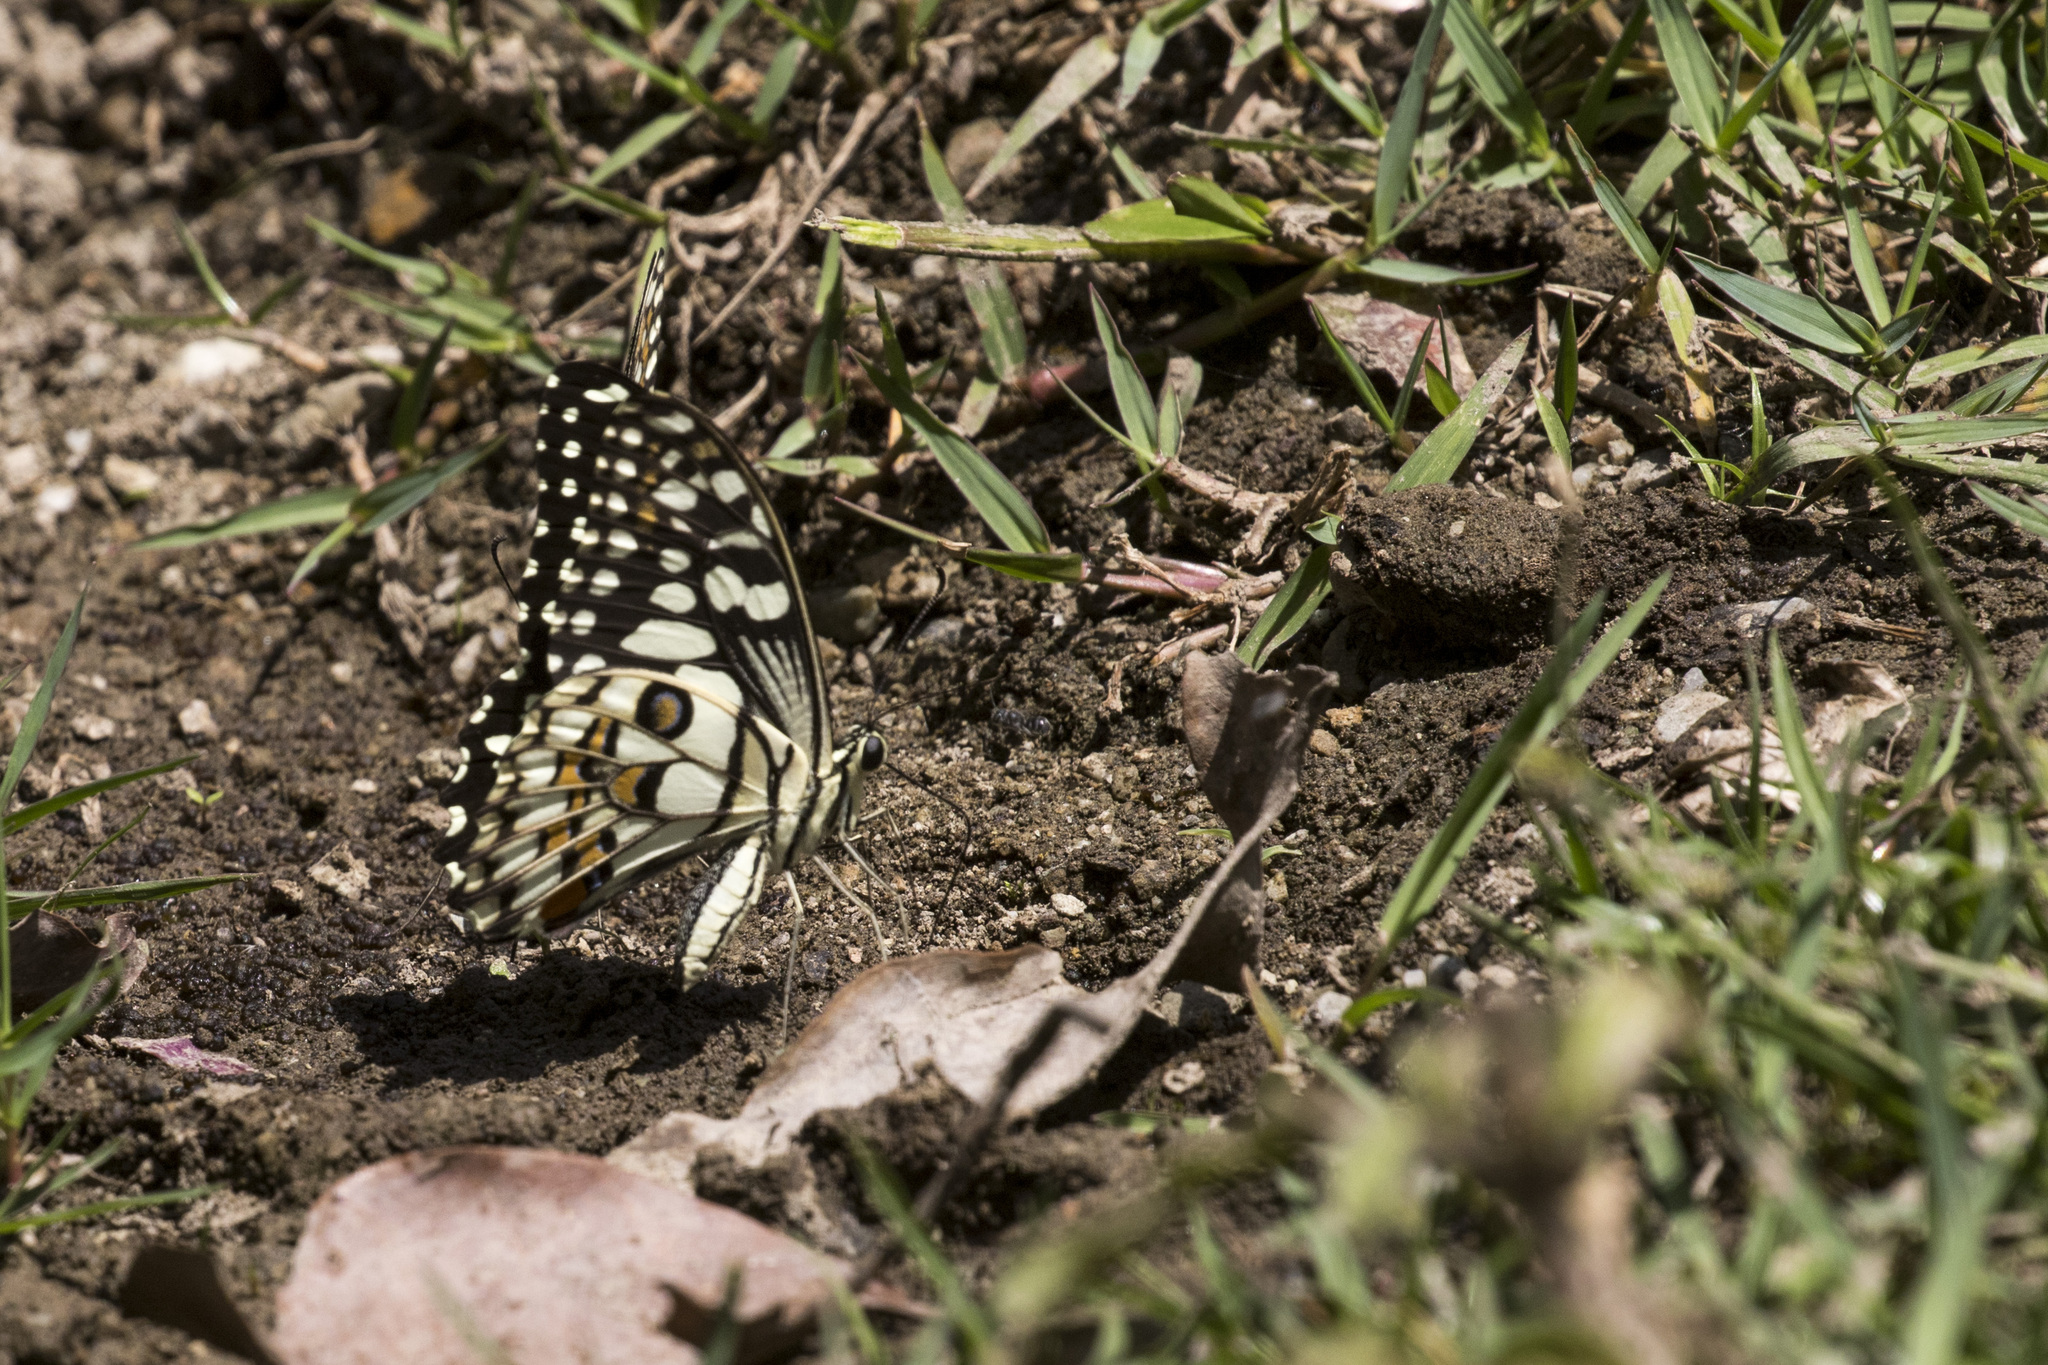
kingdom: Animalia
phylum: Arthropoda
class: Insecta
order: Lepidoptera
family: Papilionidae
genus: Papilio
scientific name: Papilio demoleus
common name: Lime butterfly
